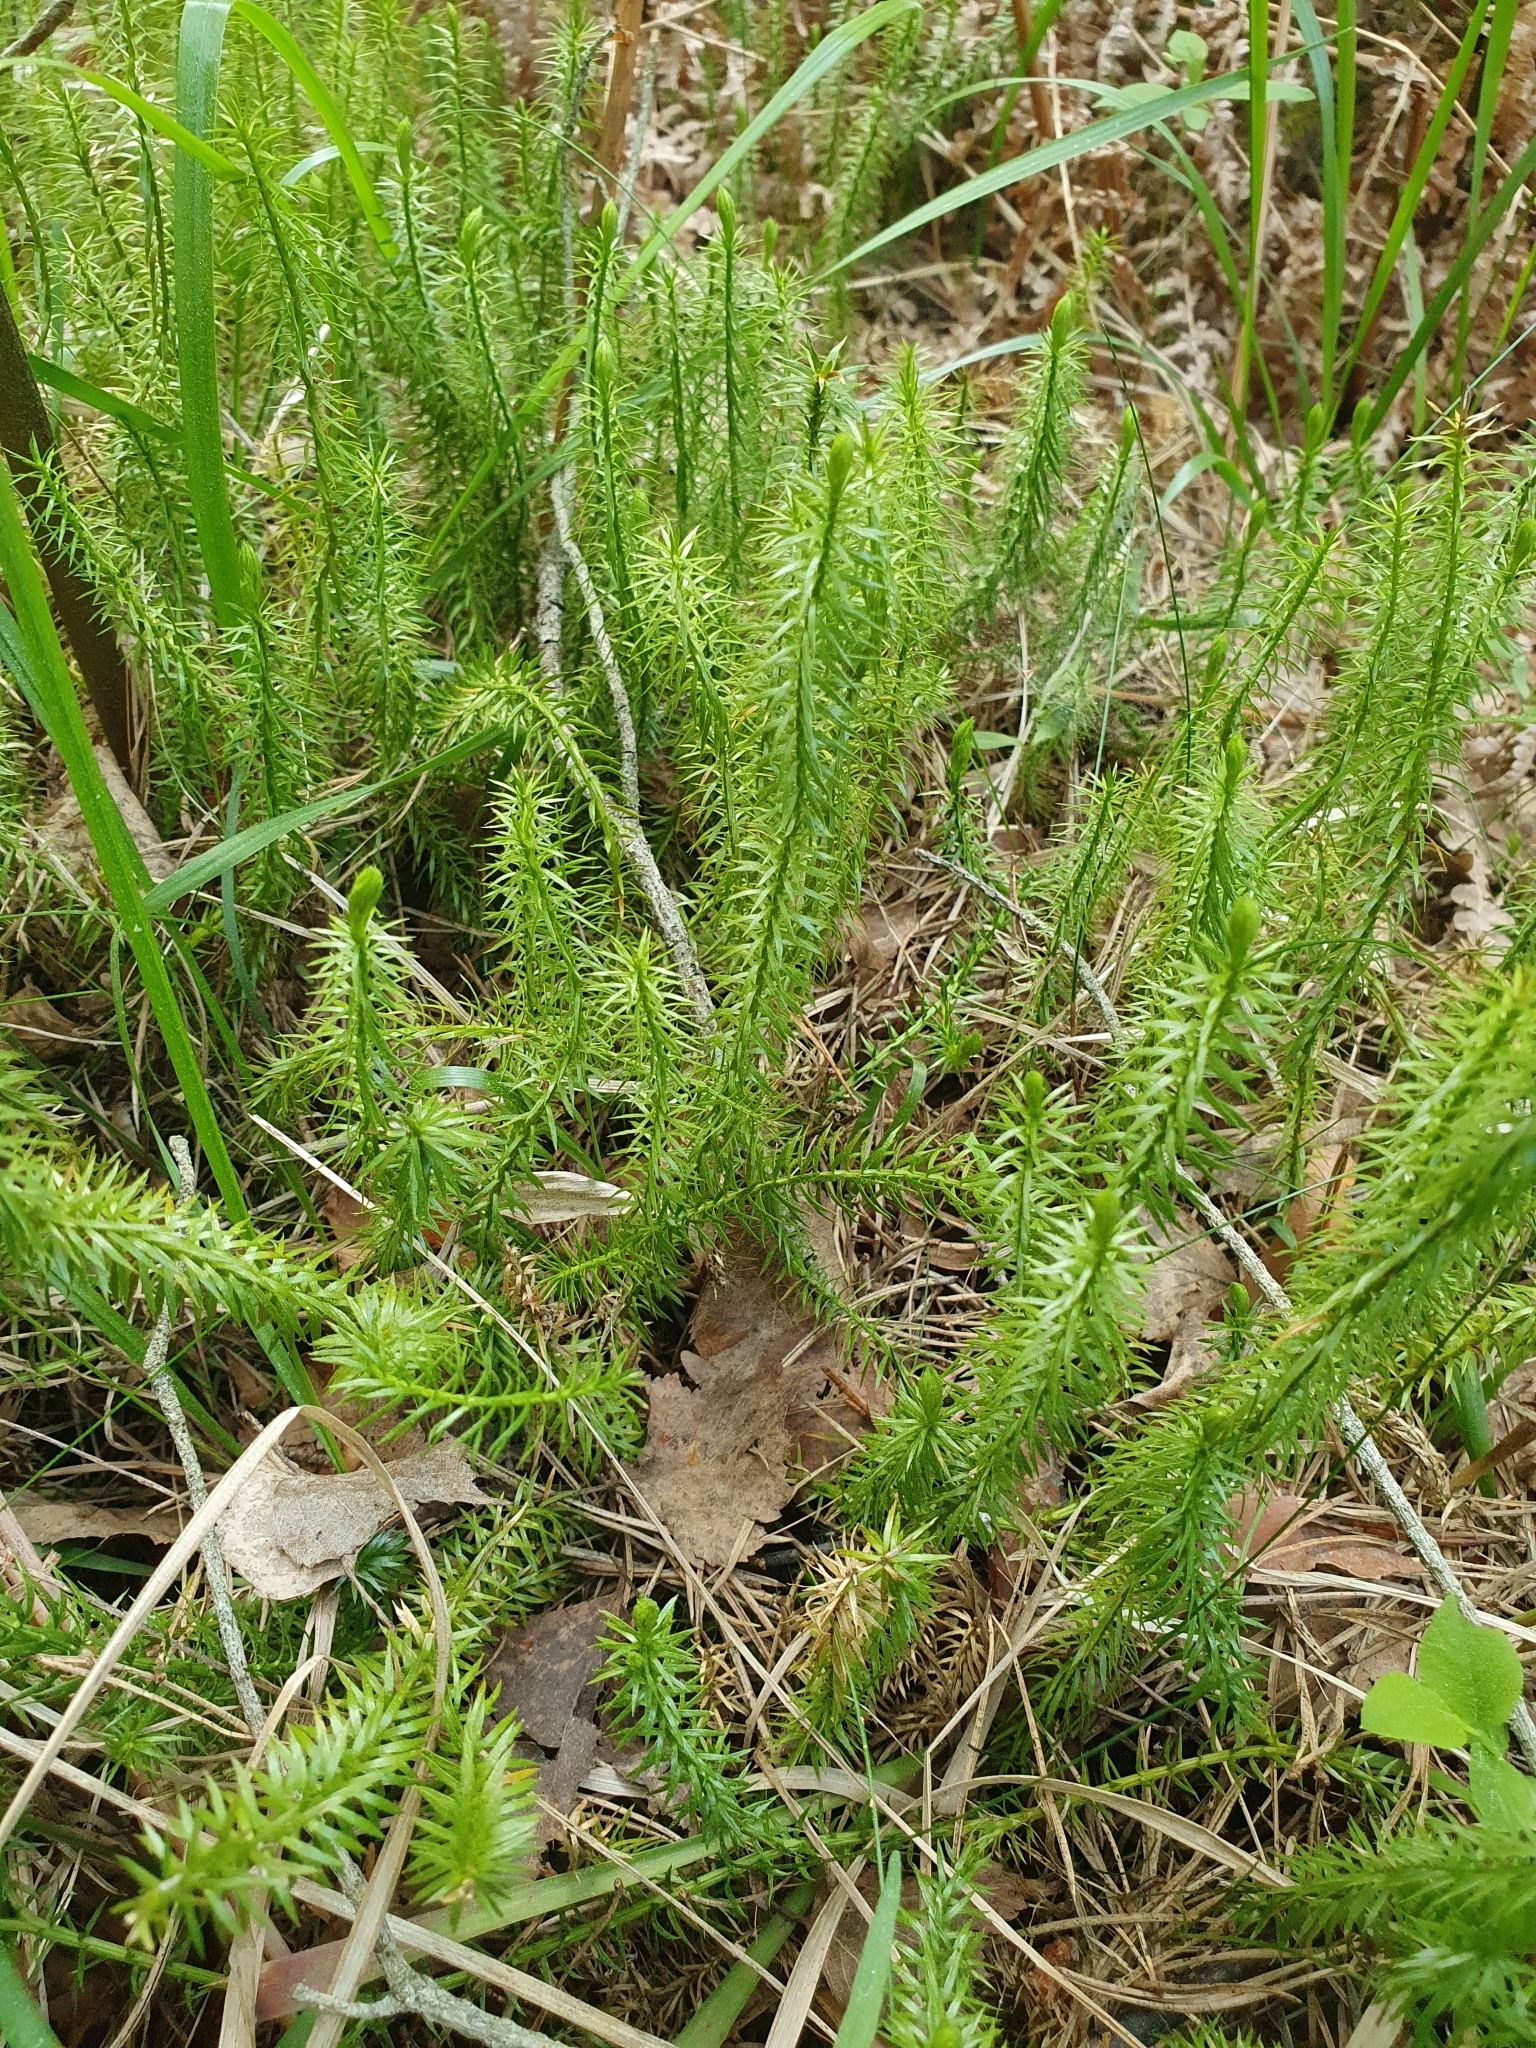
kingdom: Plantae
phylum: Tracheophyta
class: Lycopodiopsida
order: Lycopodiales
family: Lycopodiaceae
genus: Spinulum
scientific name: Spinulum annotinum
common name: Interrupted club-moss
